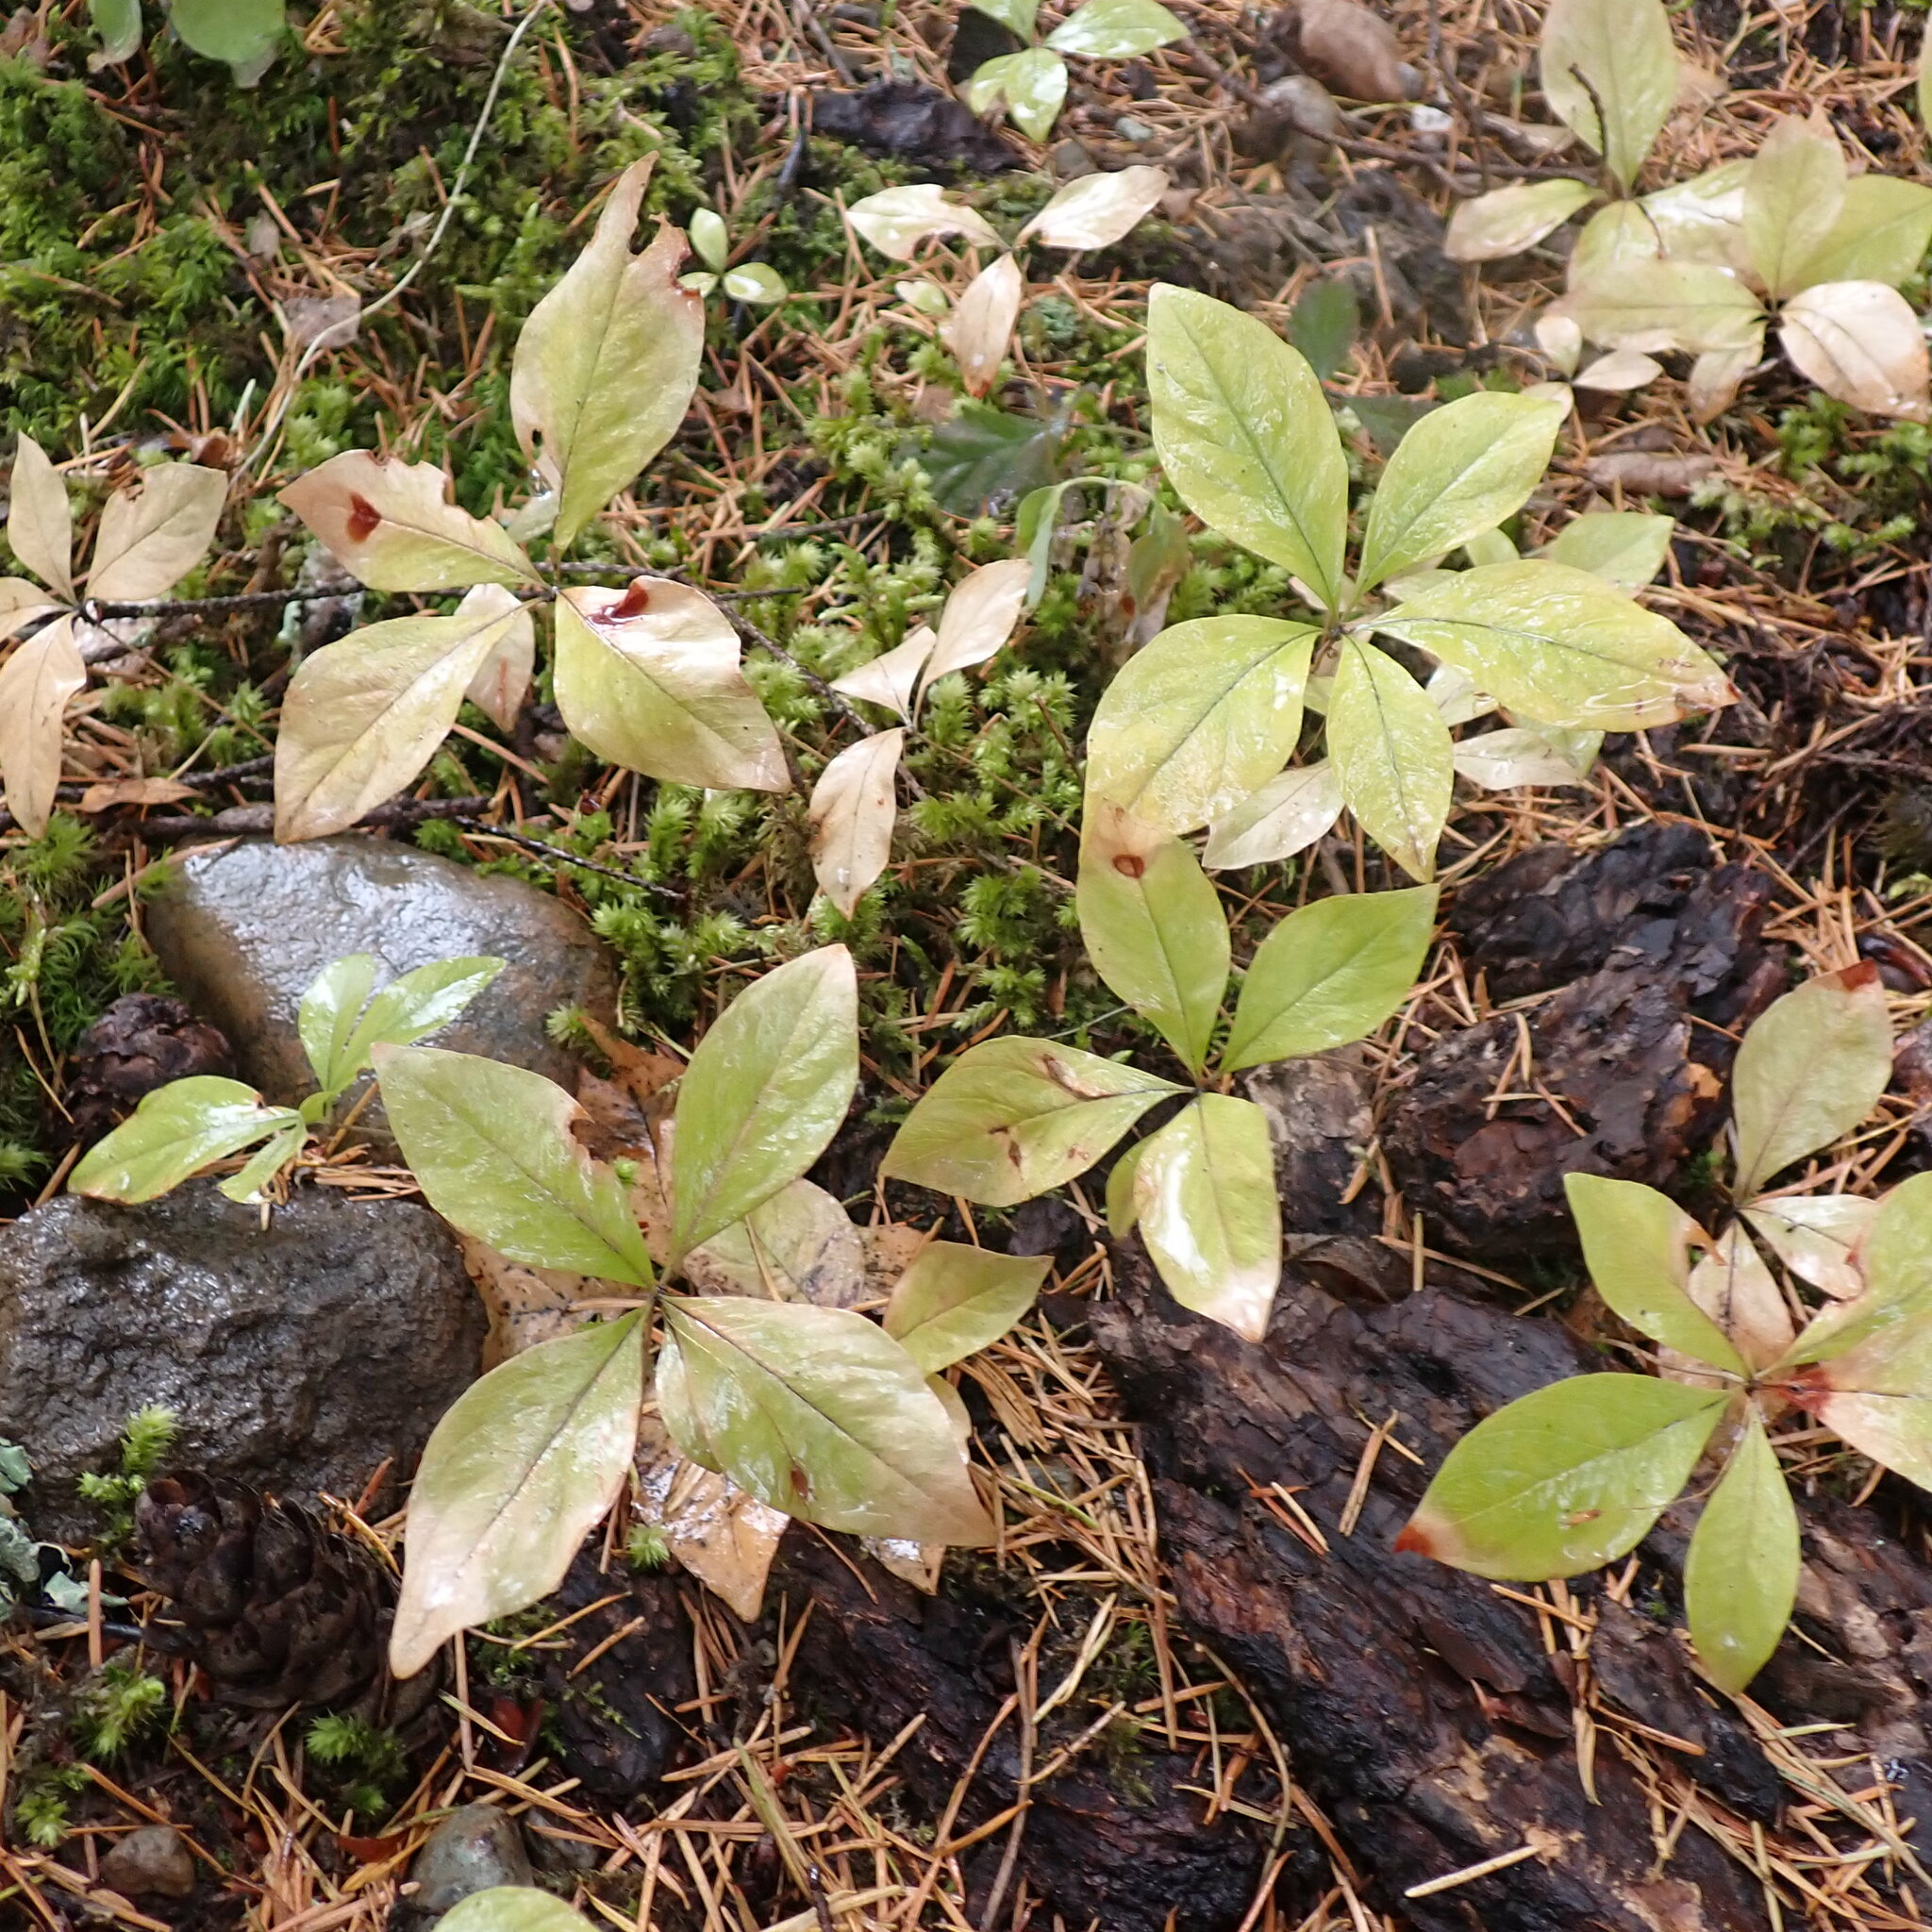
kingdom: Plantae
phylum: Tracheophyta
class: Magnoliopsida
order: Ericales
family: Primulaceae
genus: Lysimachia
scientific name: Lysimachia latifolia
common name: Pacific starflower
